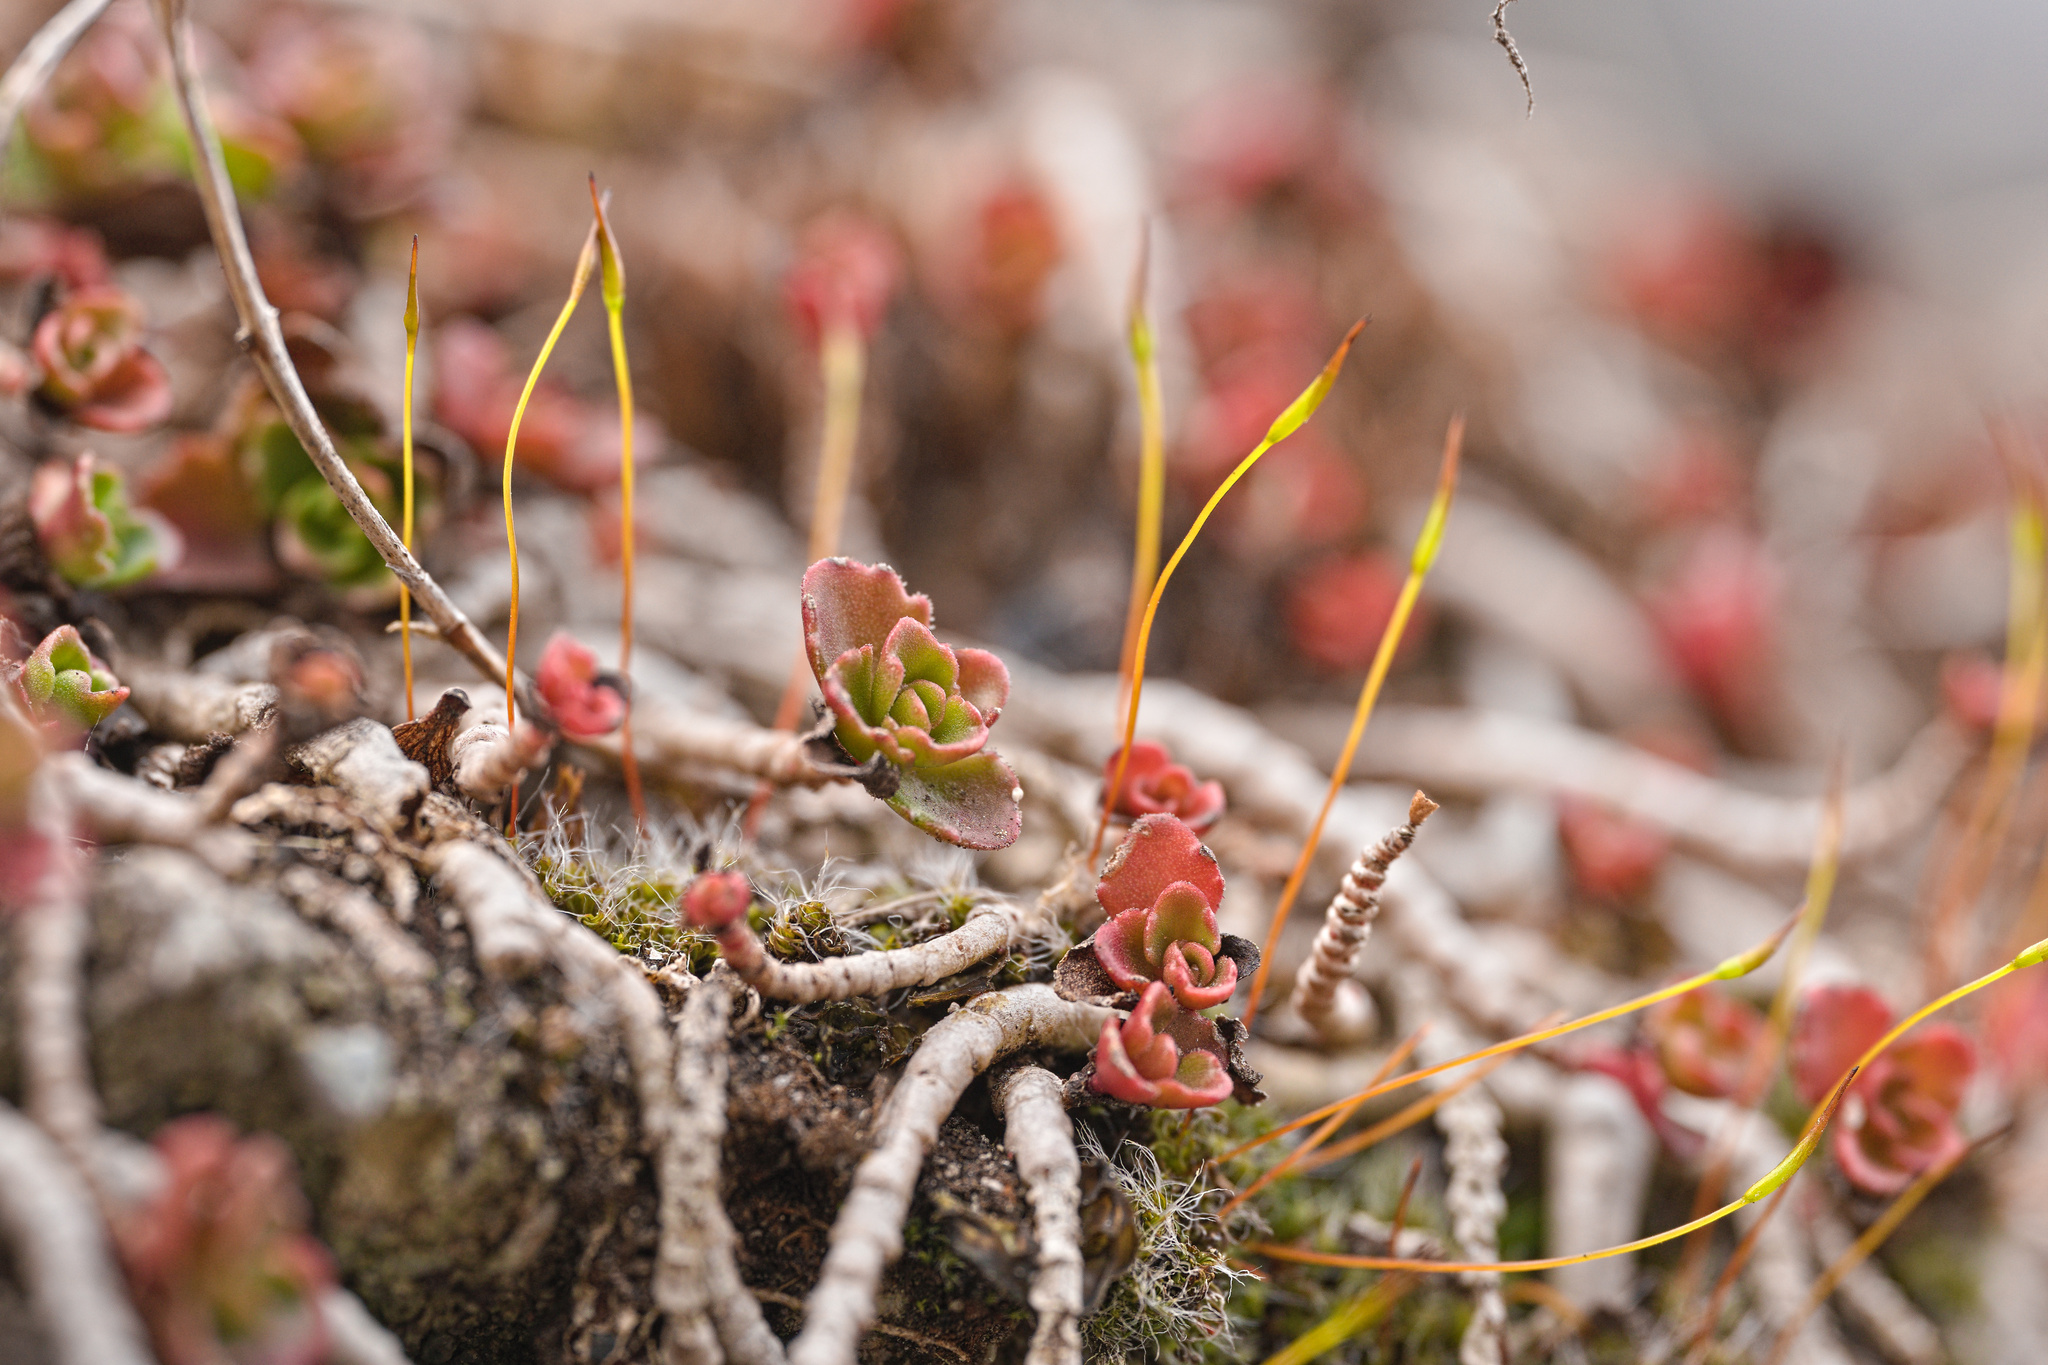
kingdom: Plantae
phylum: Tracheophyta
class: Magnoliopsida
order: Saxifragales
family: Crassulaceae
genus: Phedimus
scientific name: Phedimus spurius
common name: Caucasian stonecrop
